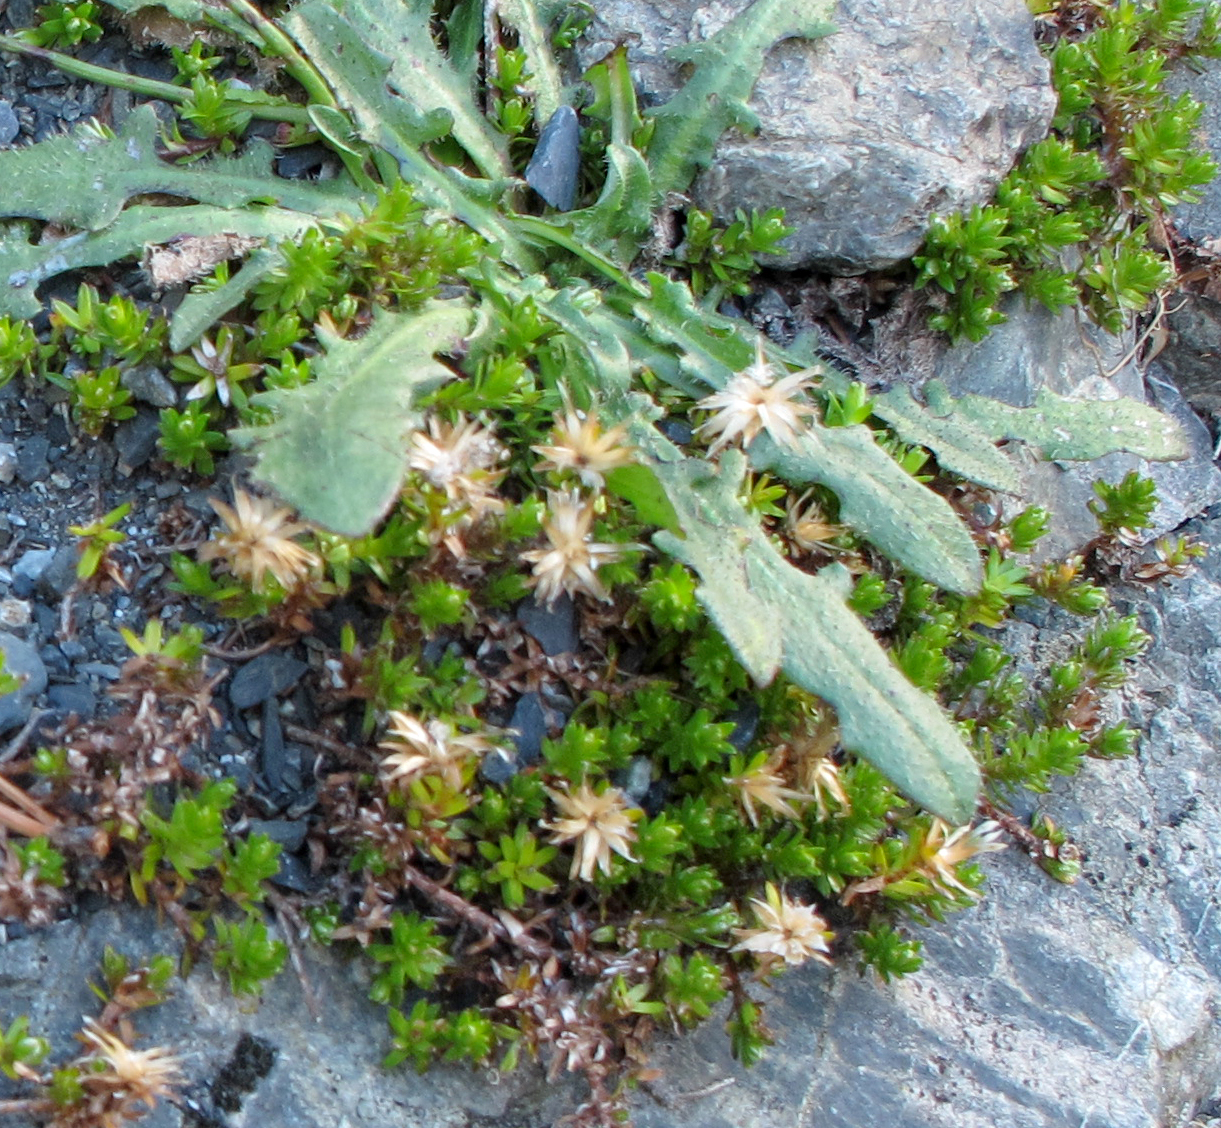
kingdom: Plantae
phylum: Tracheophyta
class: Magnoliopsida
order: Asterales
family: Asteraceae
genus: Raoulia
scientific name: Raoulia glabra
